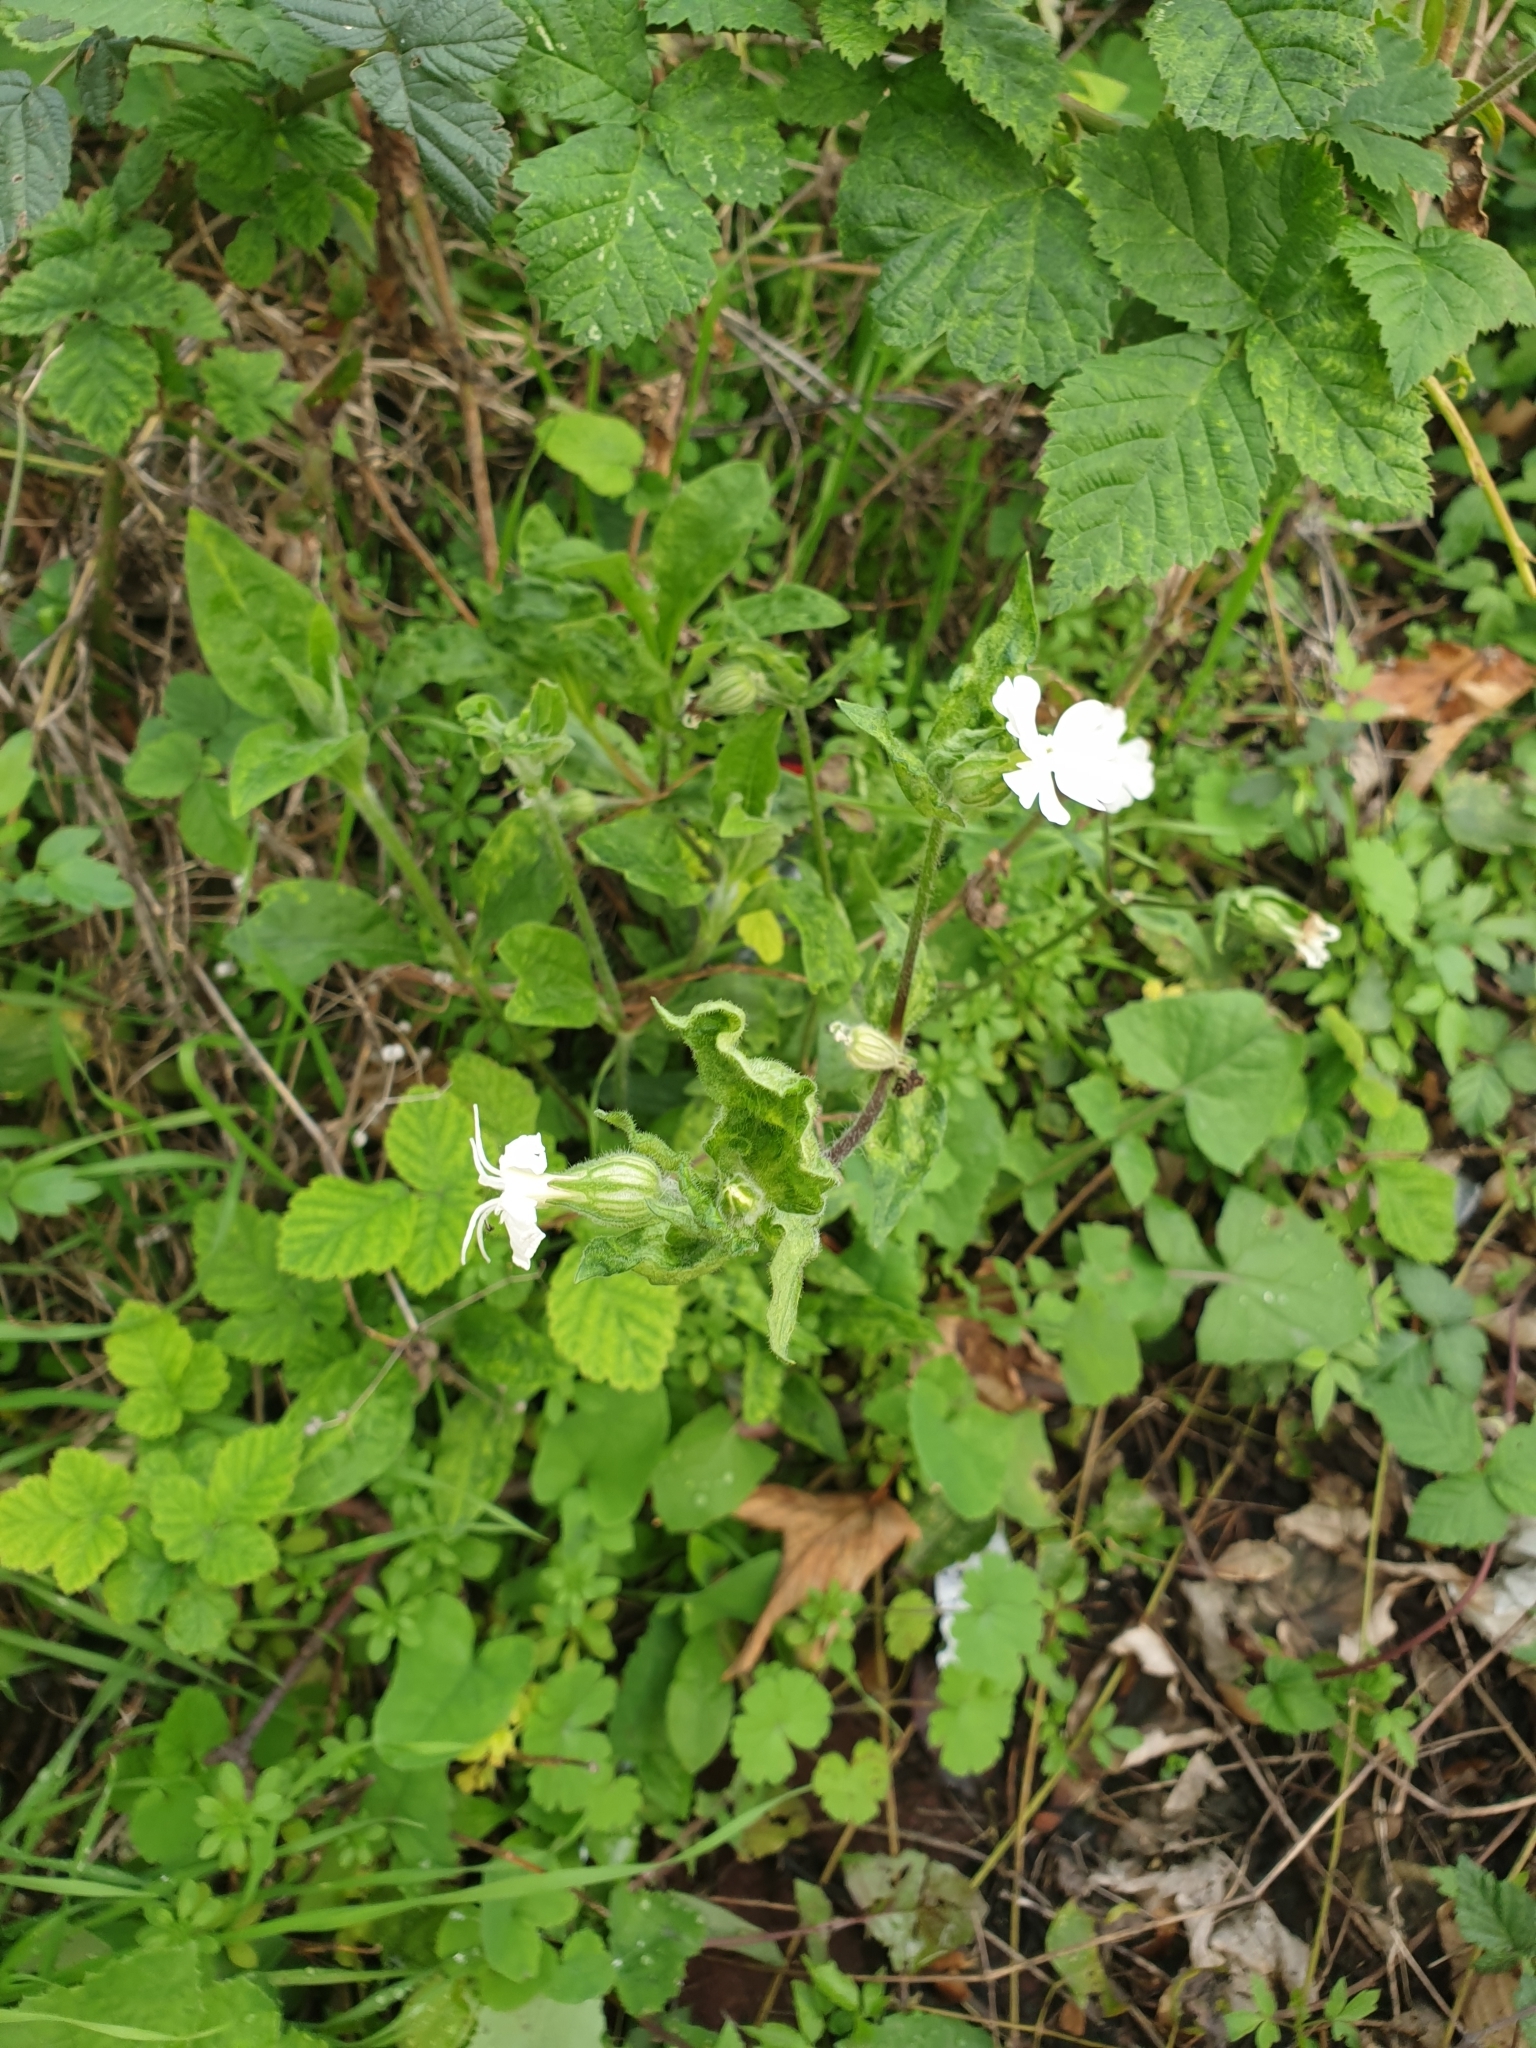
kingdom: Plantae
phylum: Tracheophyta
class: Magnoliopsida
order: Caryophyllales
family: Caryophyllaceae
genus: Silene
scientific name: Silene latifolia
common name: White campion
